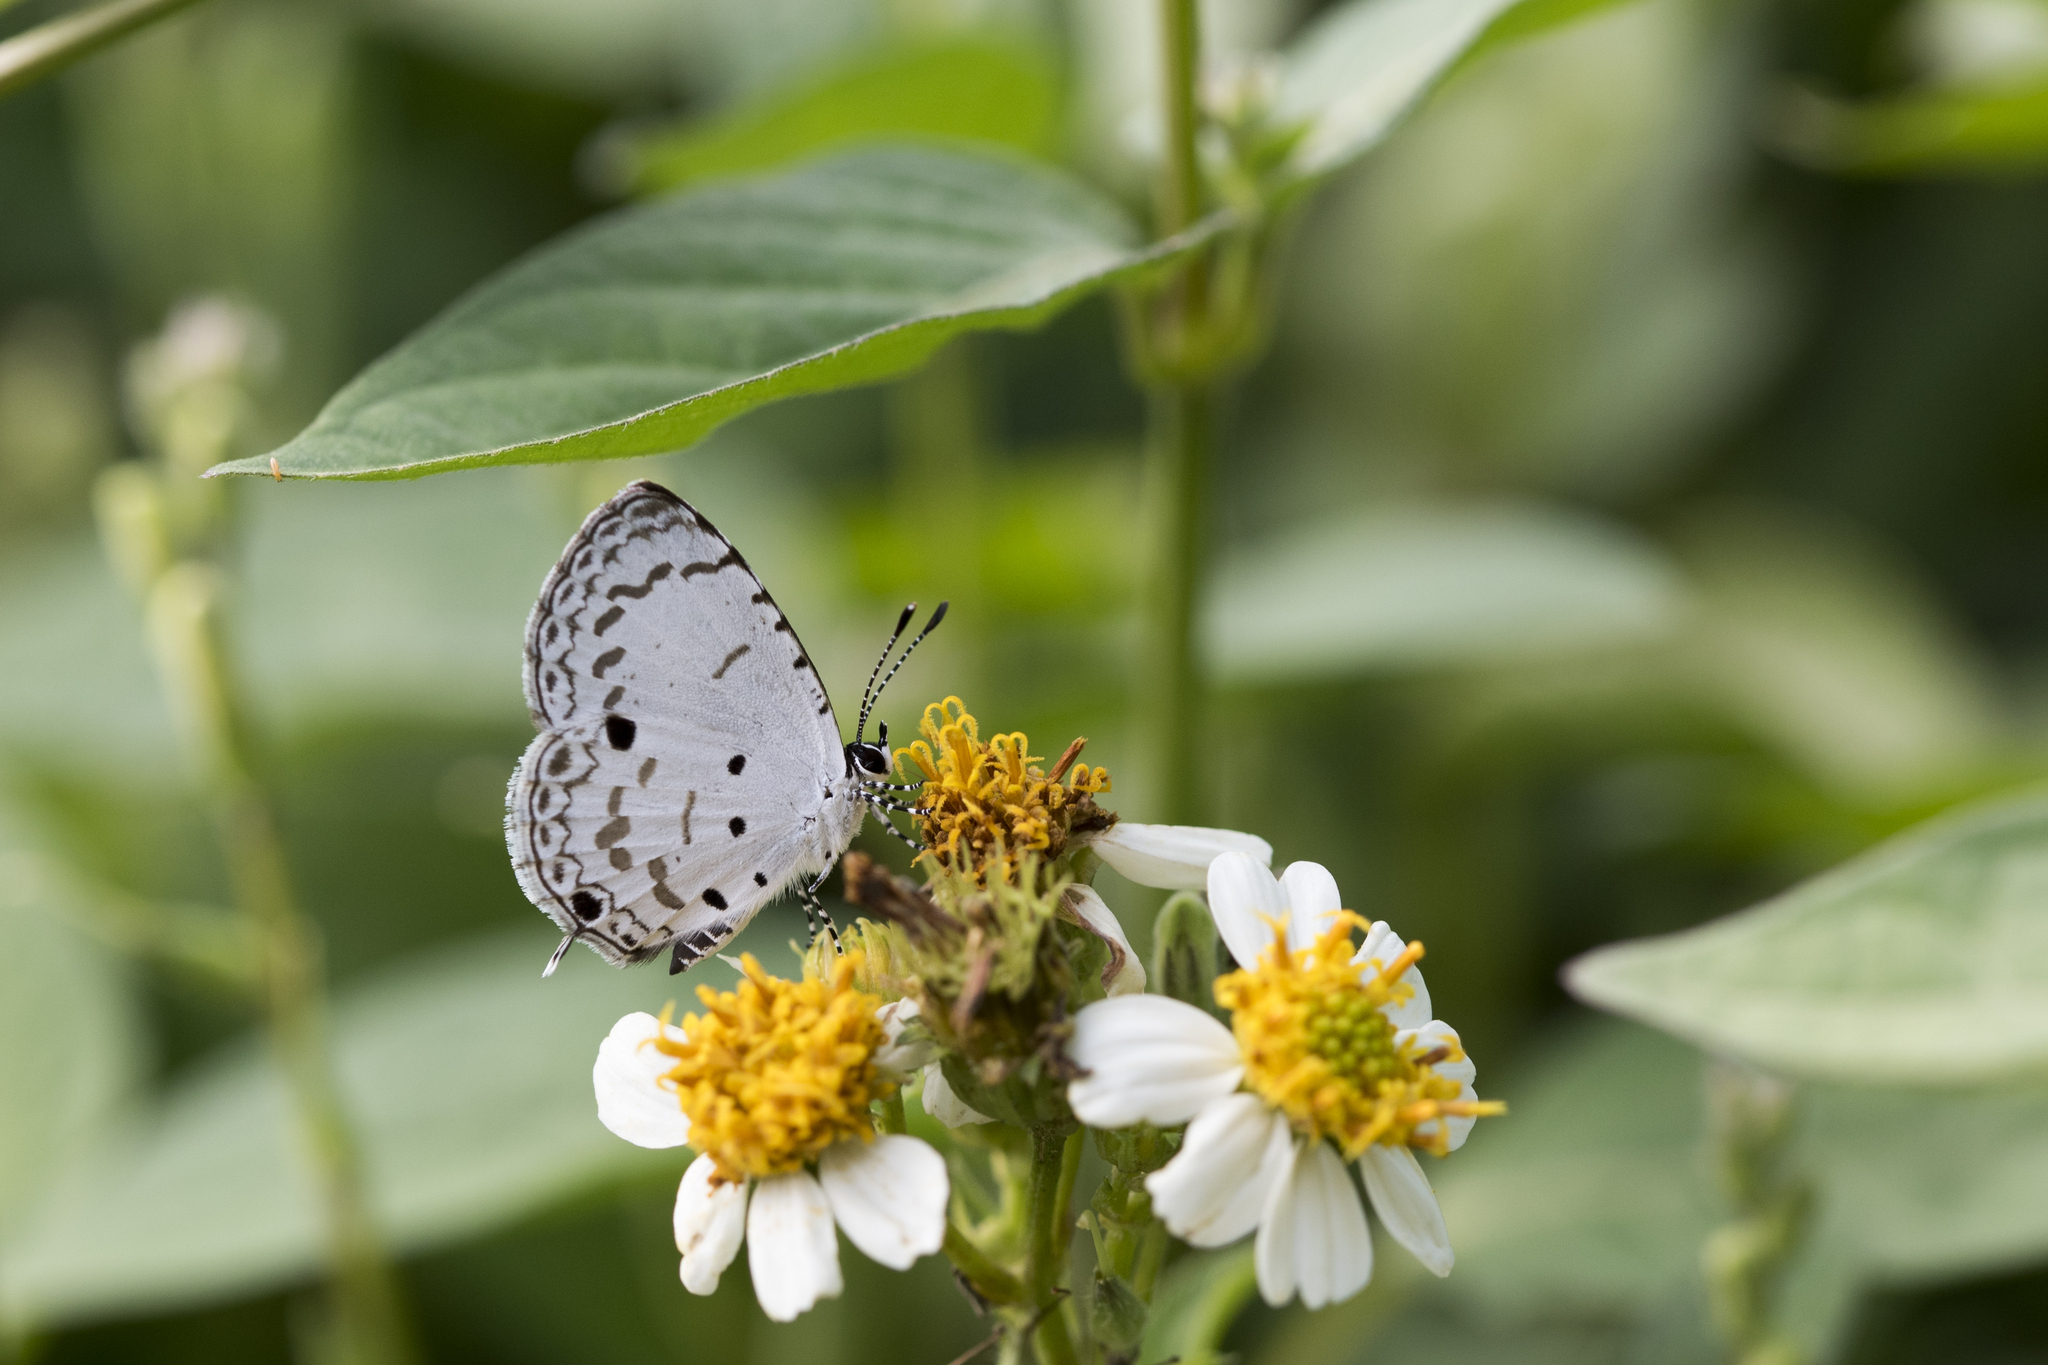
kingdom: Animalia
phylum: Arthropoda
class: Insecta
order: Lepidoptera
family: Lycaenidae
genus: Megisba
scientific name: Megisba malaya
